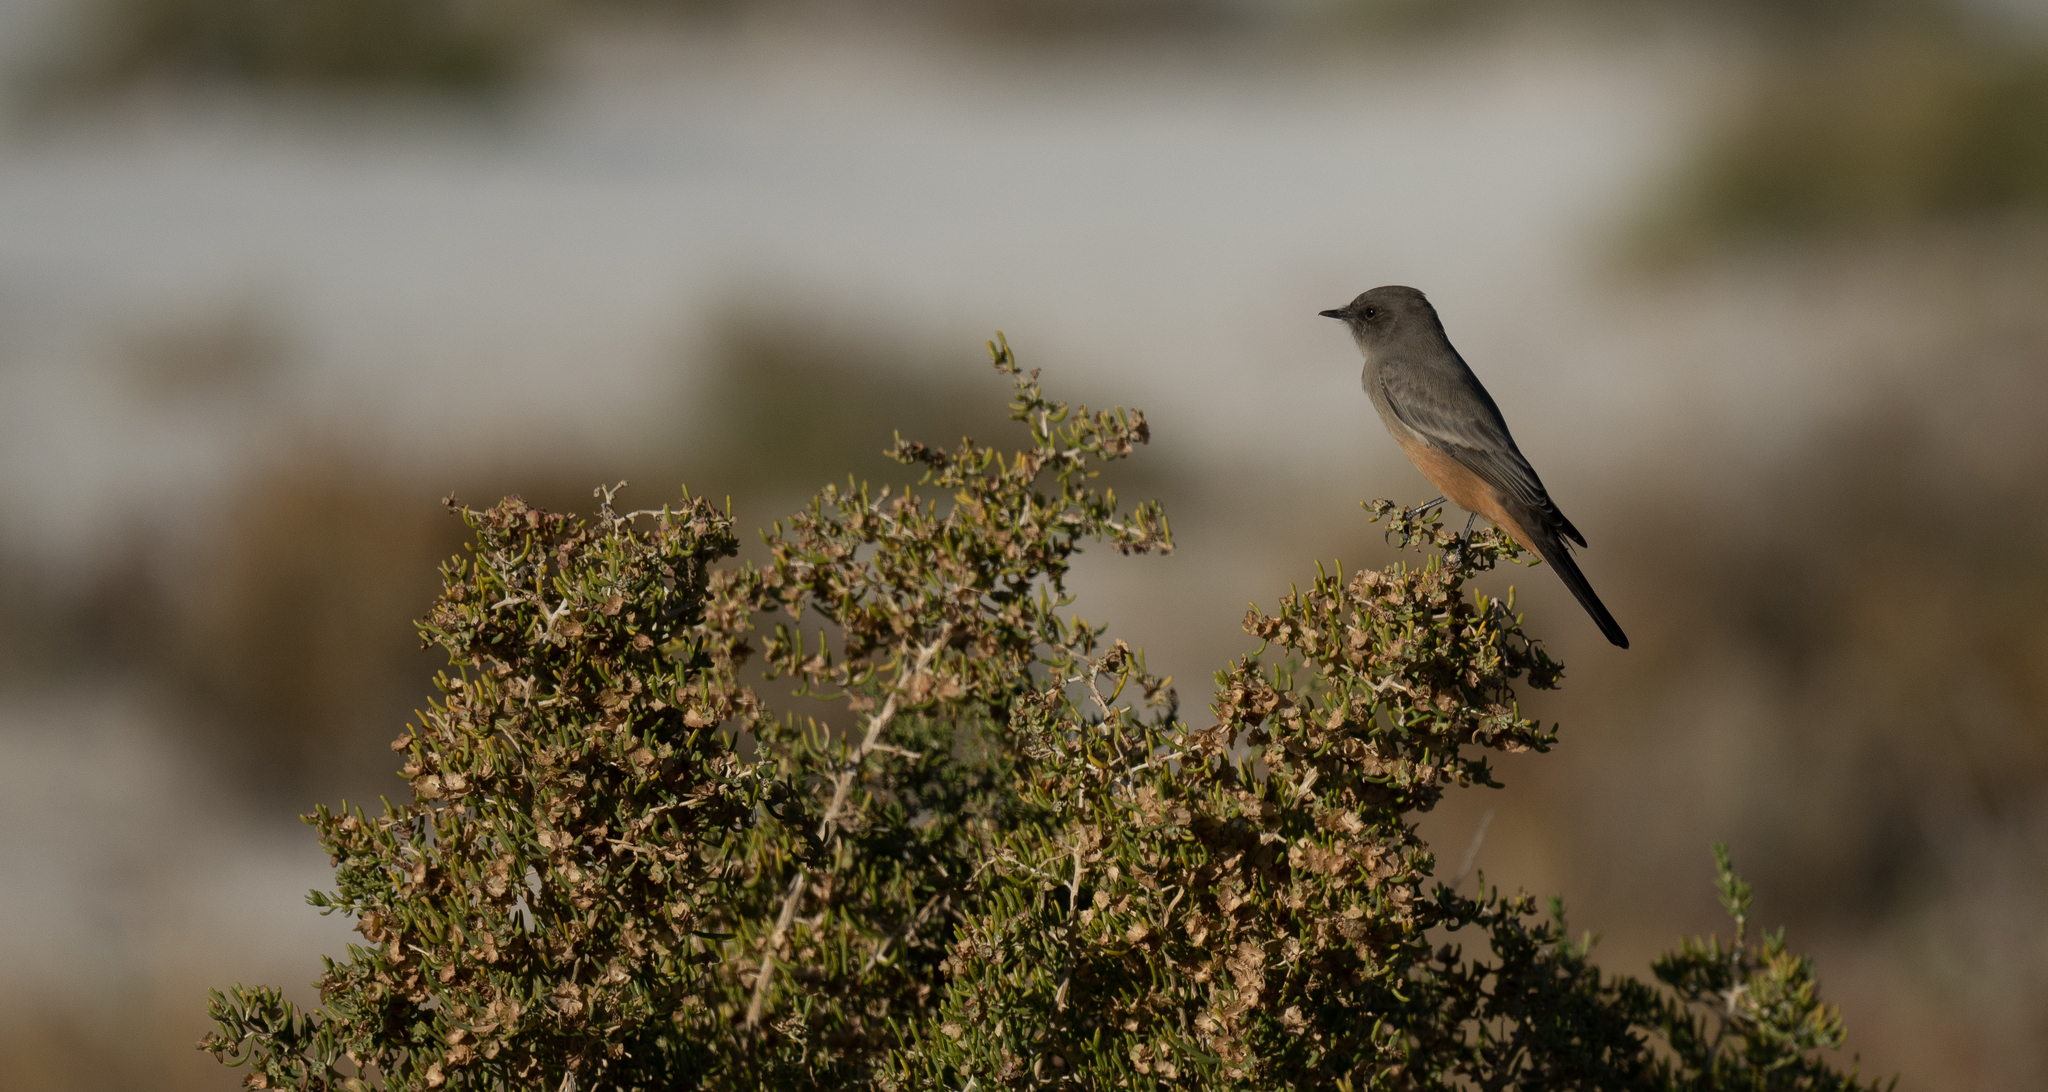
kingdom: Animalia
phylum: Chordata
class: Aves
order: Passeriformes
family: Tyrannidae
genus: Sayornis
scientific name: Sayornis saya
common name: Say's phoebe
